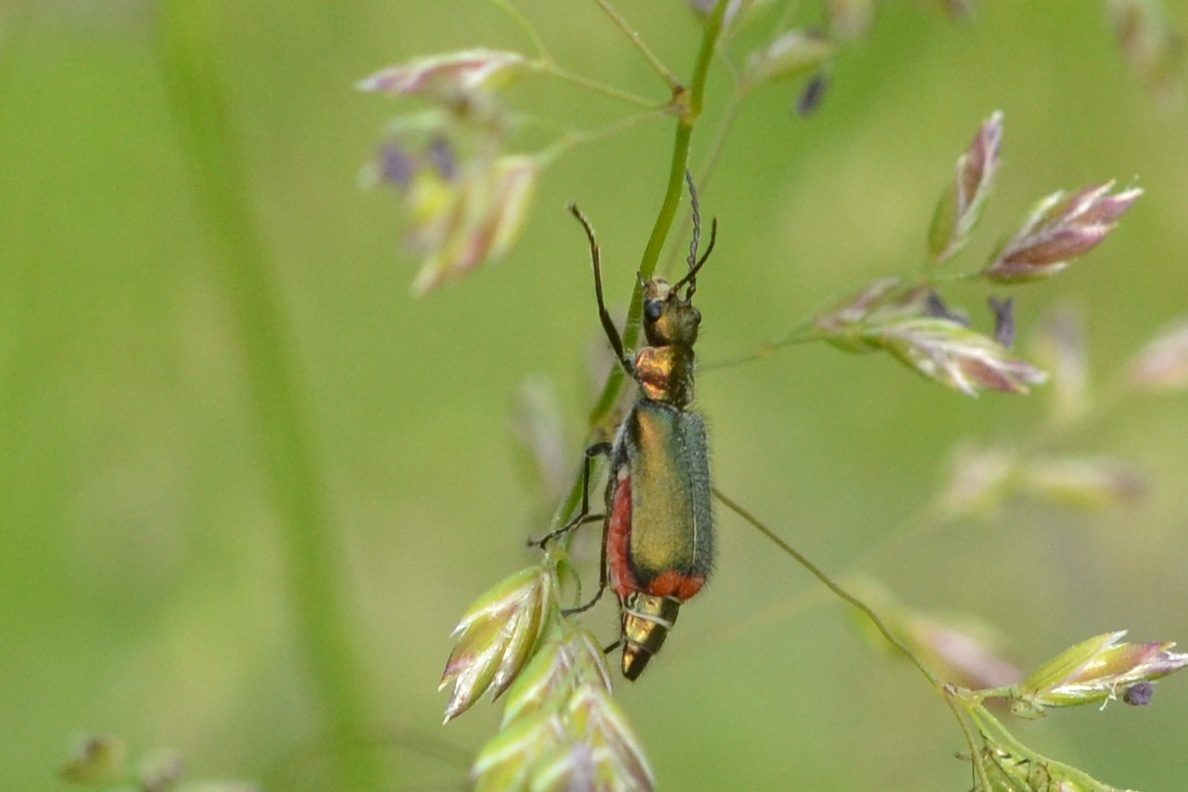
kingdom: Animalia
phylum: Arthropoda
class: Insecta
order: Coleoptera
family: Melyridae
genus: Malachius
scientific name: Malachius bipustulatus
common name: Malachite beetle
